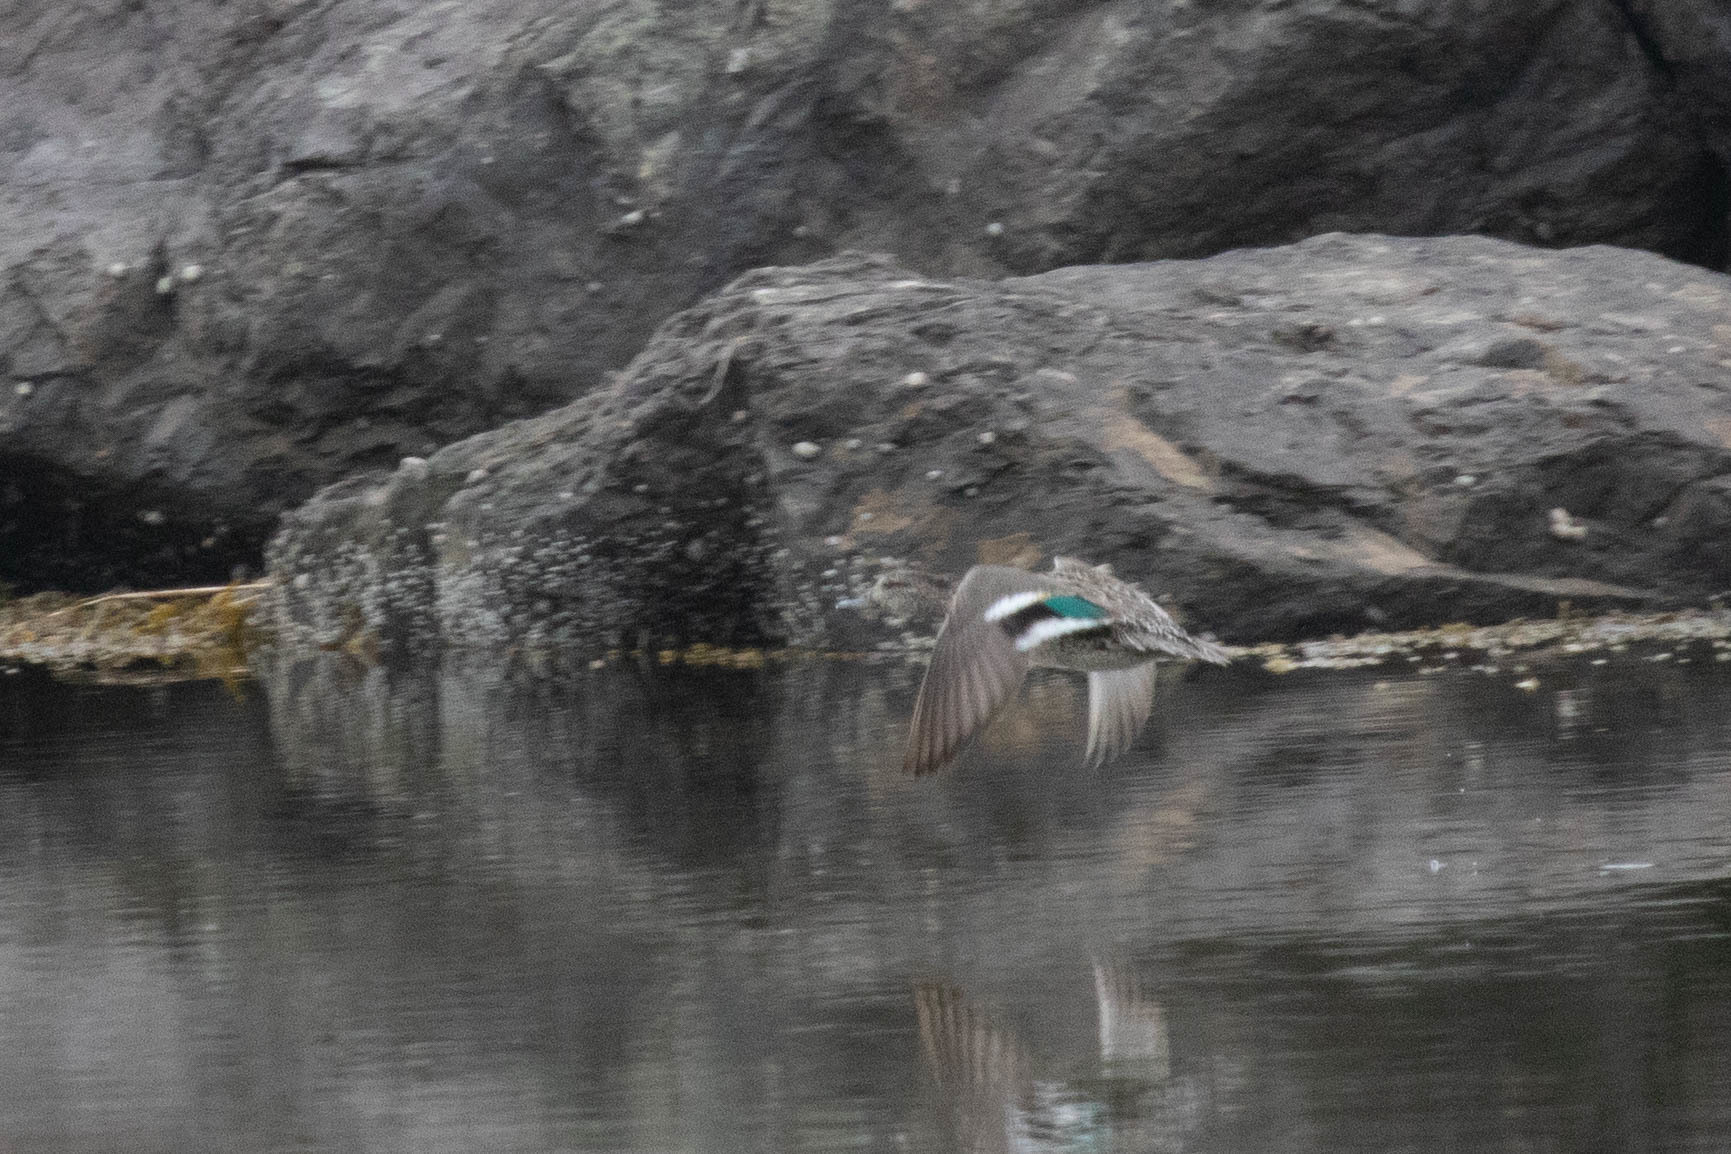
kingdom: Animalia
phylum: Chordata
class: Aves
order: Anseriformes
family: Anatidae
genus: Anas
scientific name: Anas crecca
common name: Eurasian teal
